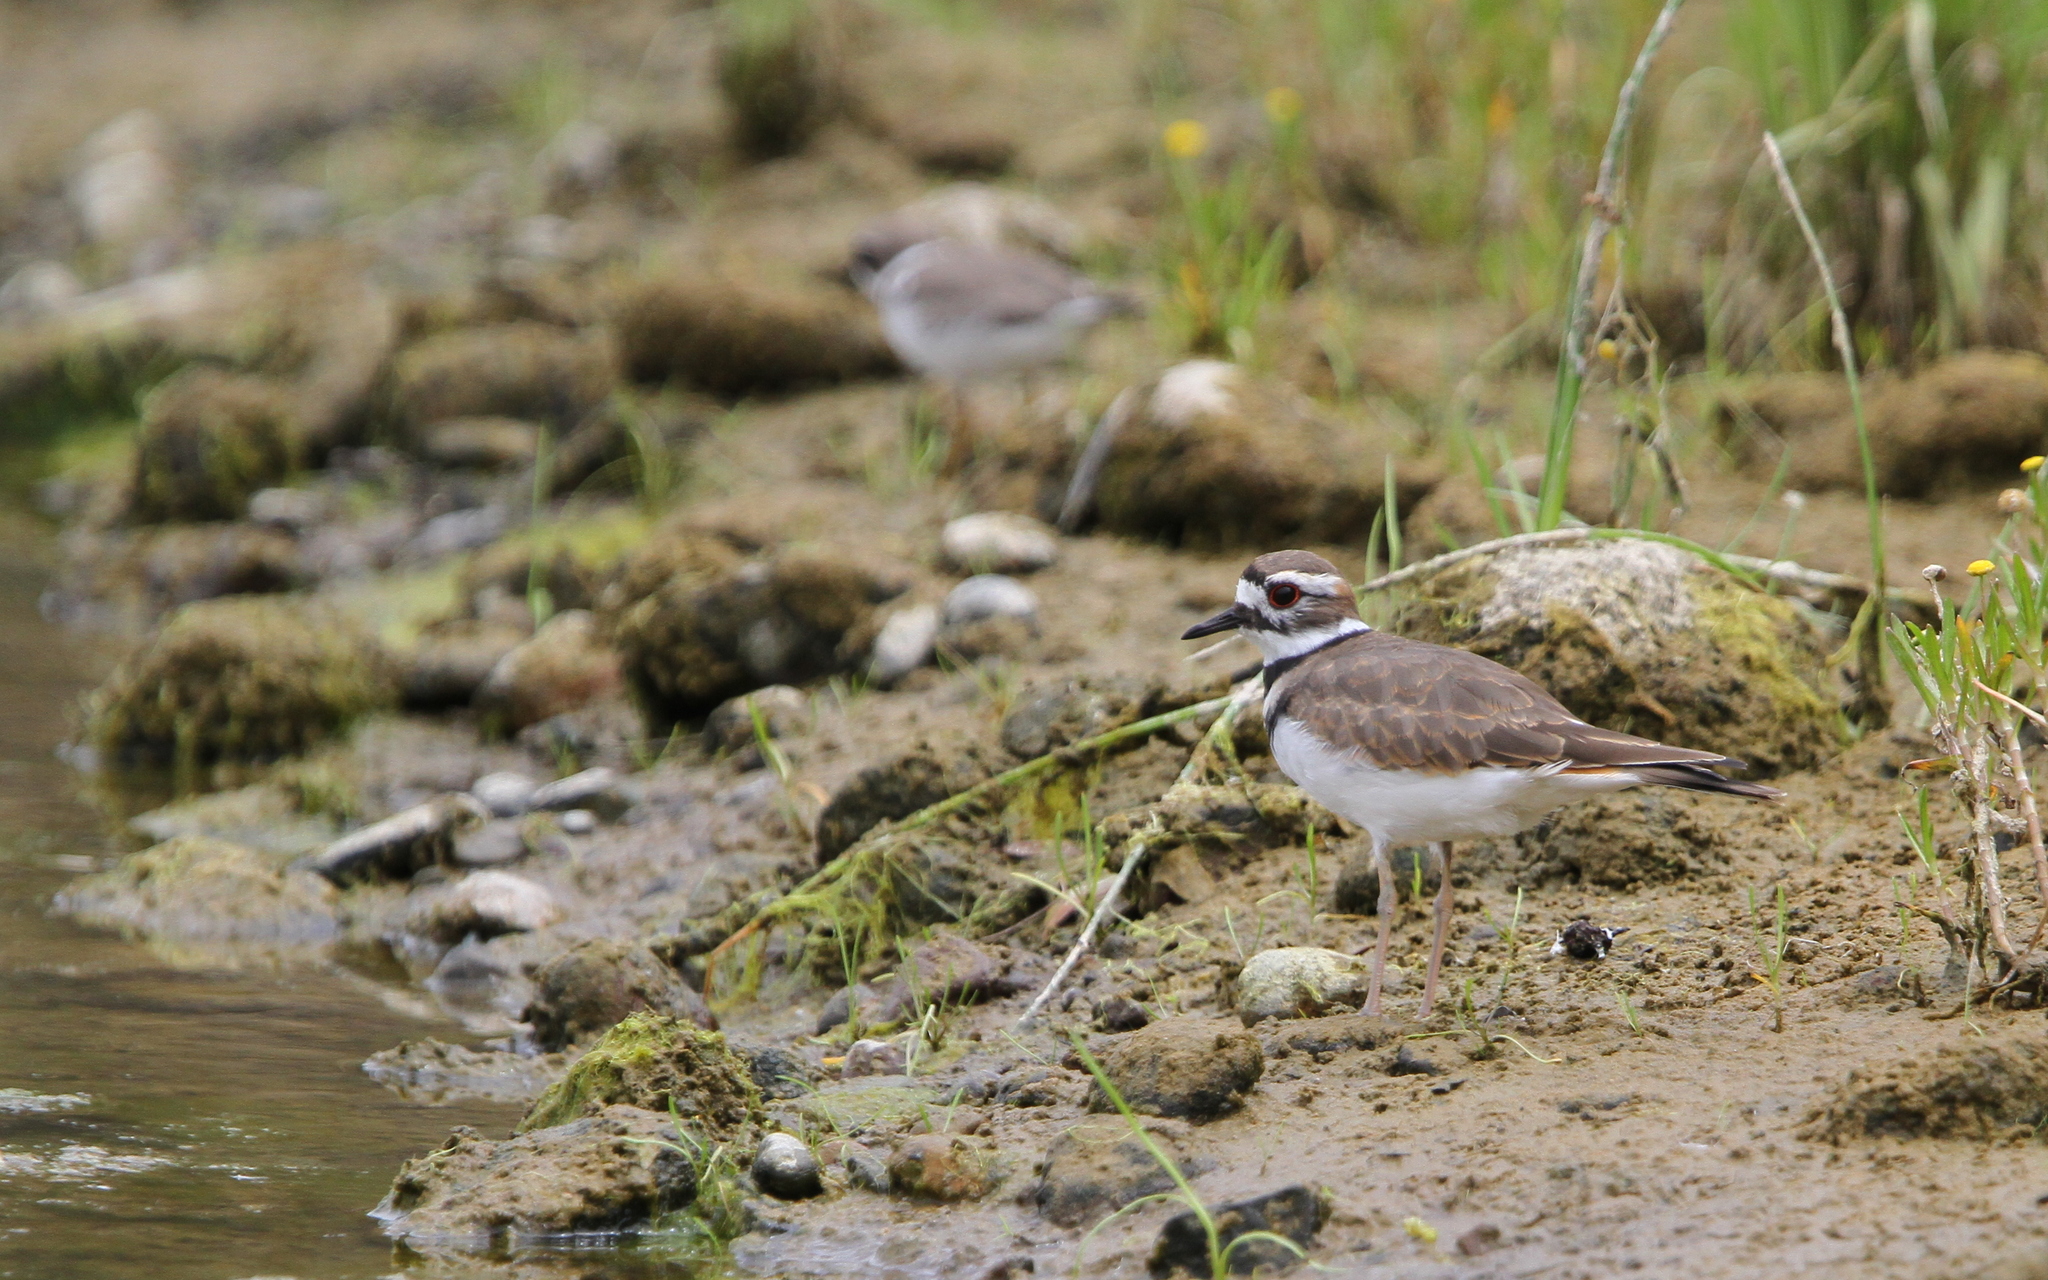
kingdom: Animalia
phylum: Chordata
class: Aves
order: Charadriiformes
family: Charadriidae
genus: Charadrius
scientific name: Charadrius vociferus
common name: Killdeer
